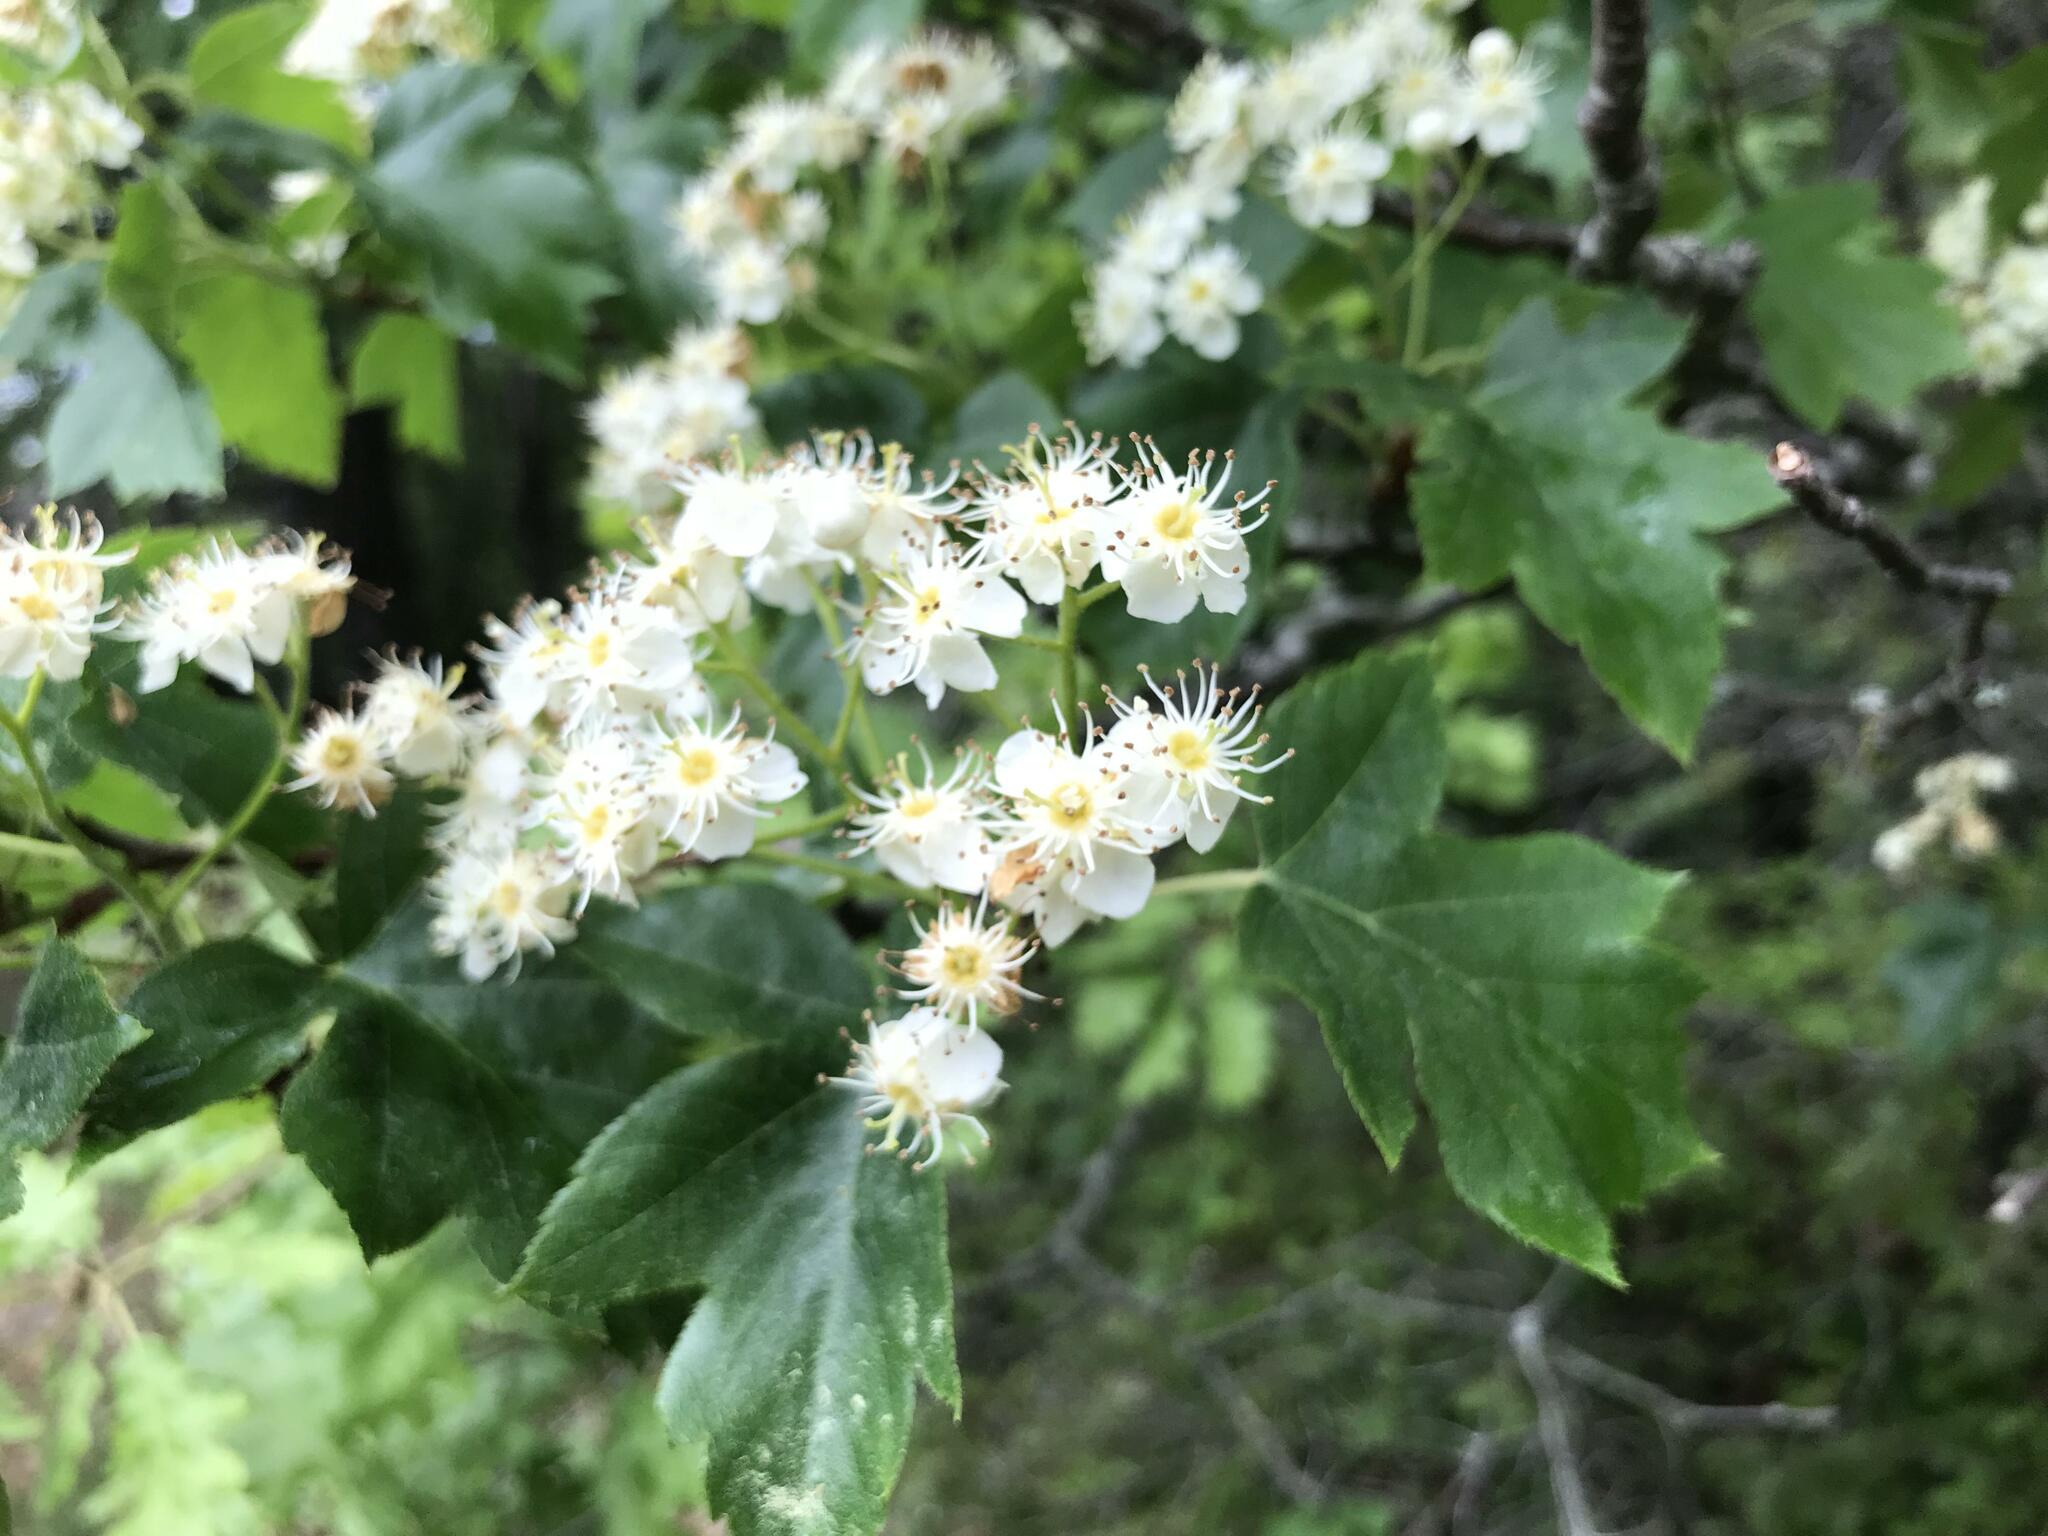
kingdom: Plantae
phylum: Tracheophyta
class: Magnoliopsida
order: Rosales
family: Rosaceae
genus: Torminalis
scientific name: Torminalis glaberrima
